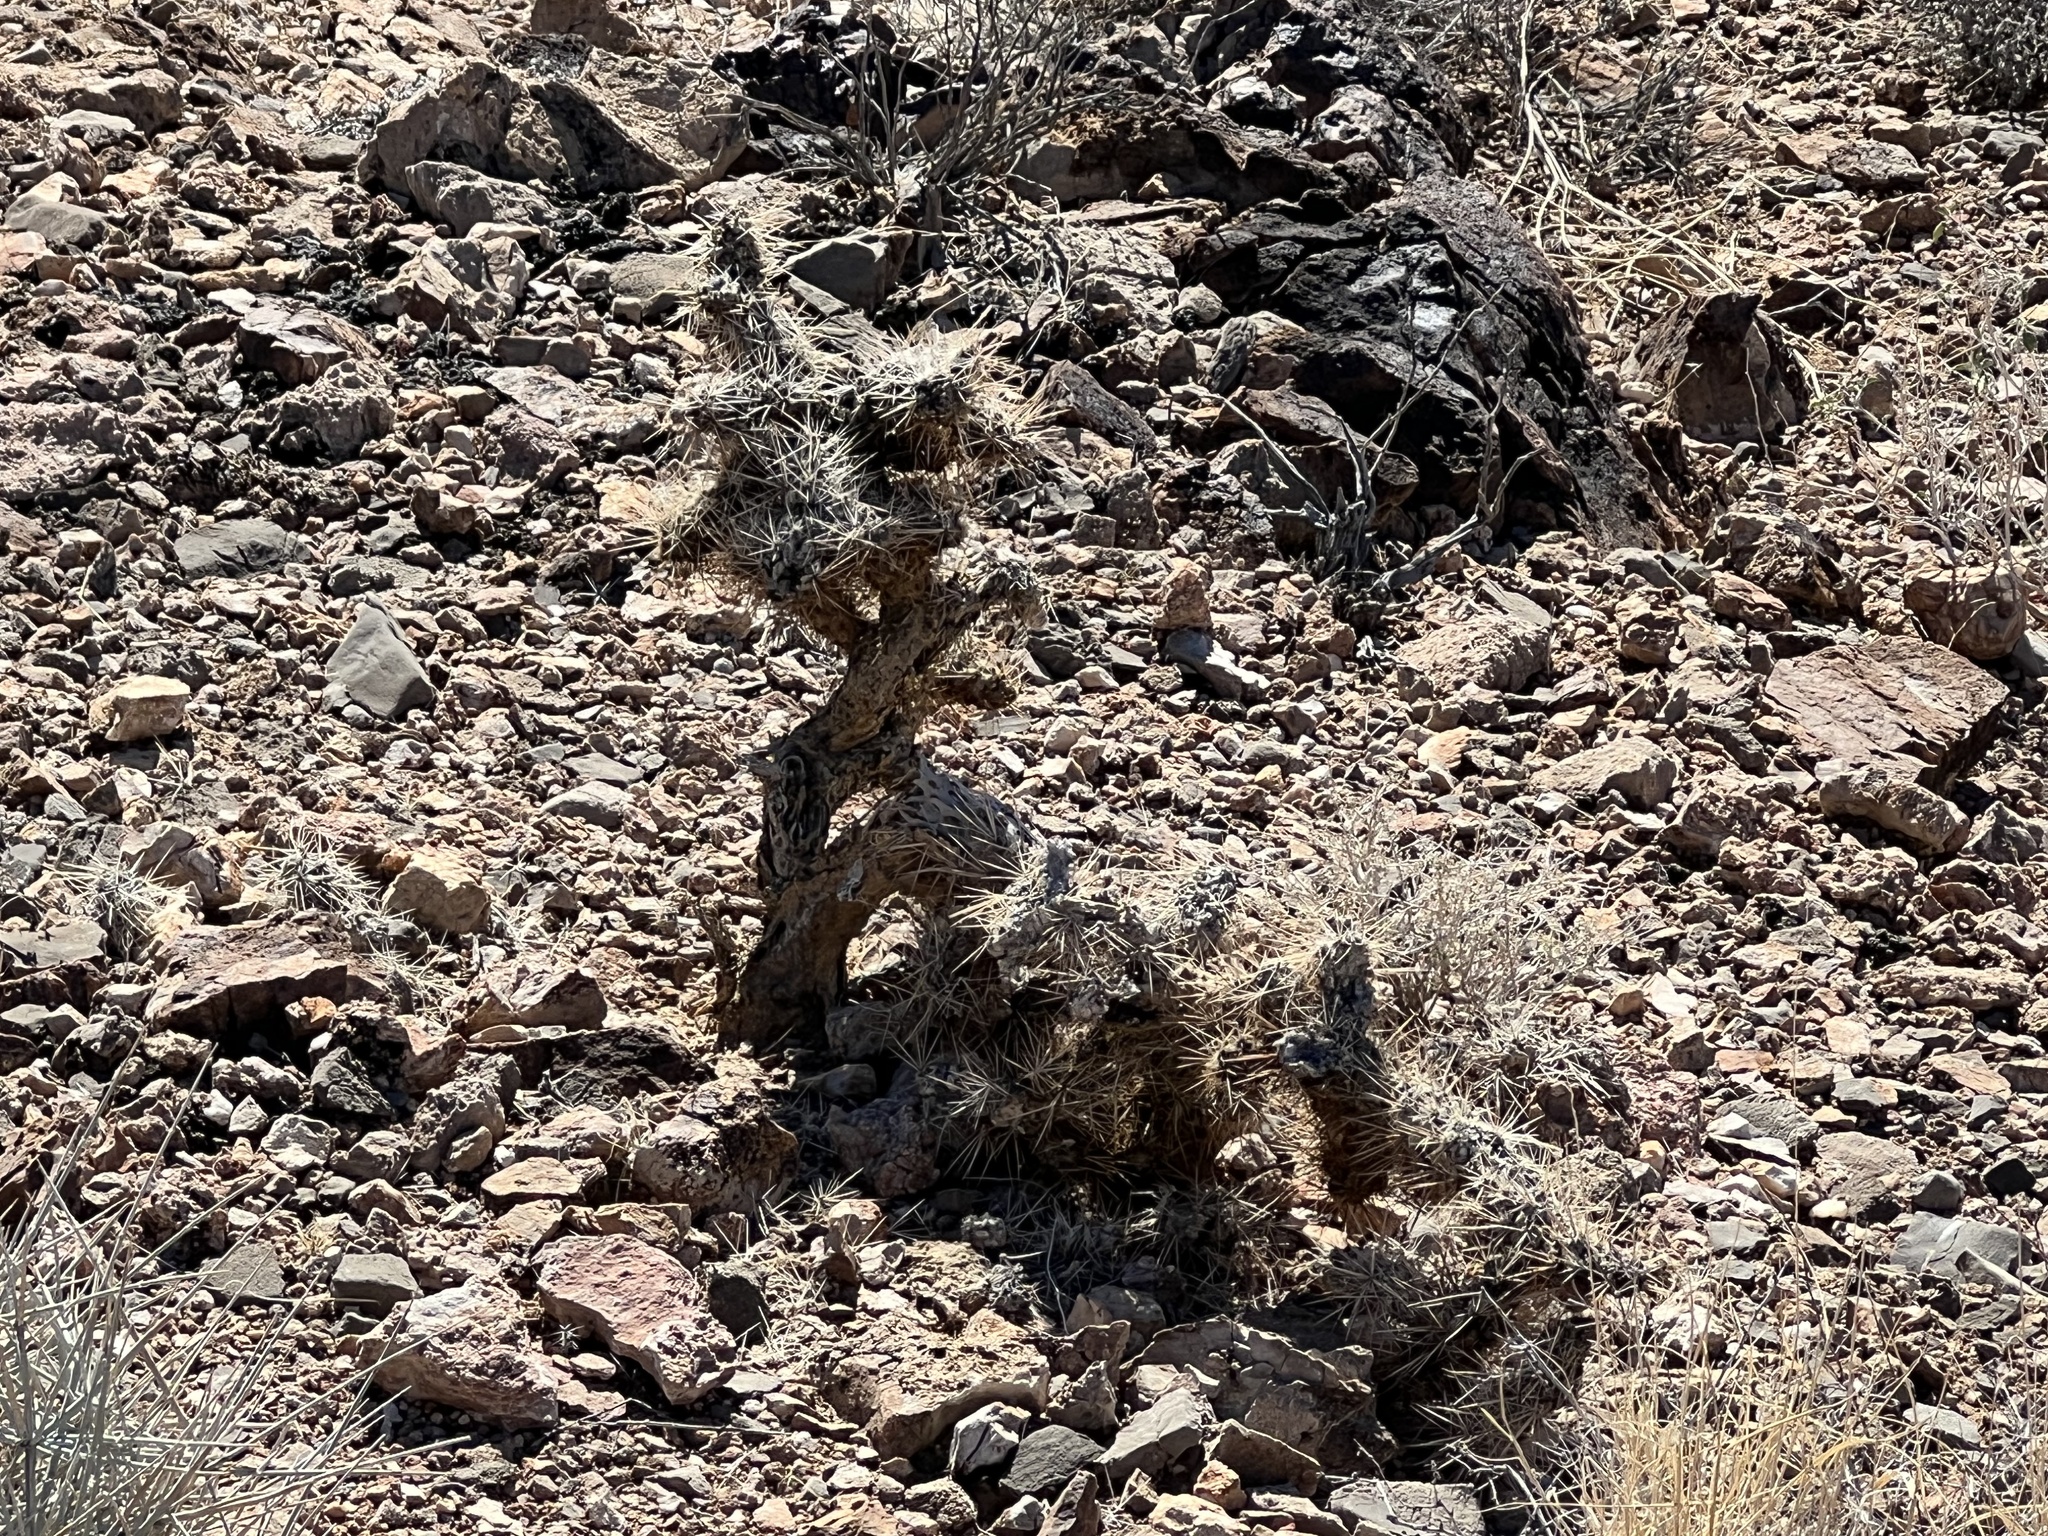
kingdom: Plantae
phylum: Tracheophyta
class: Magnoliopsida
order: Caryophyllales
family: Cactaceae
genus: Cylindropuntia
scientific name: Cylindropuntia echinocarpa
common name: Ground cholla
